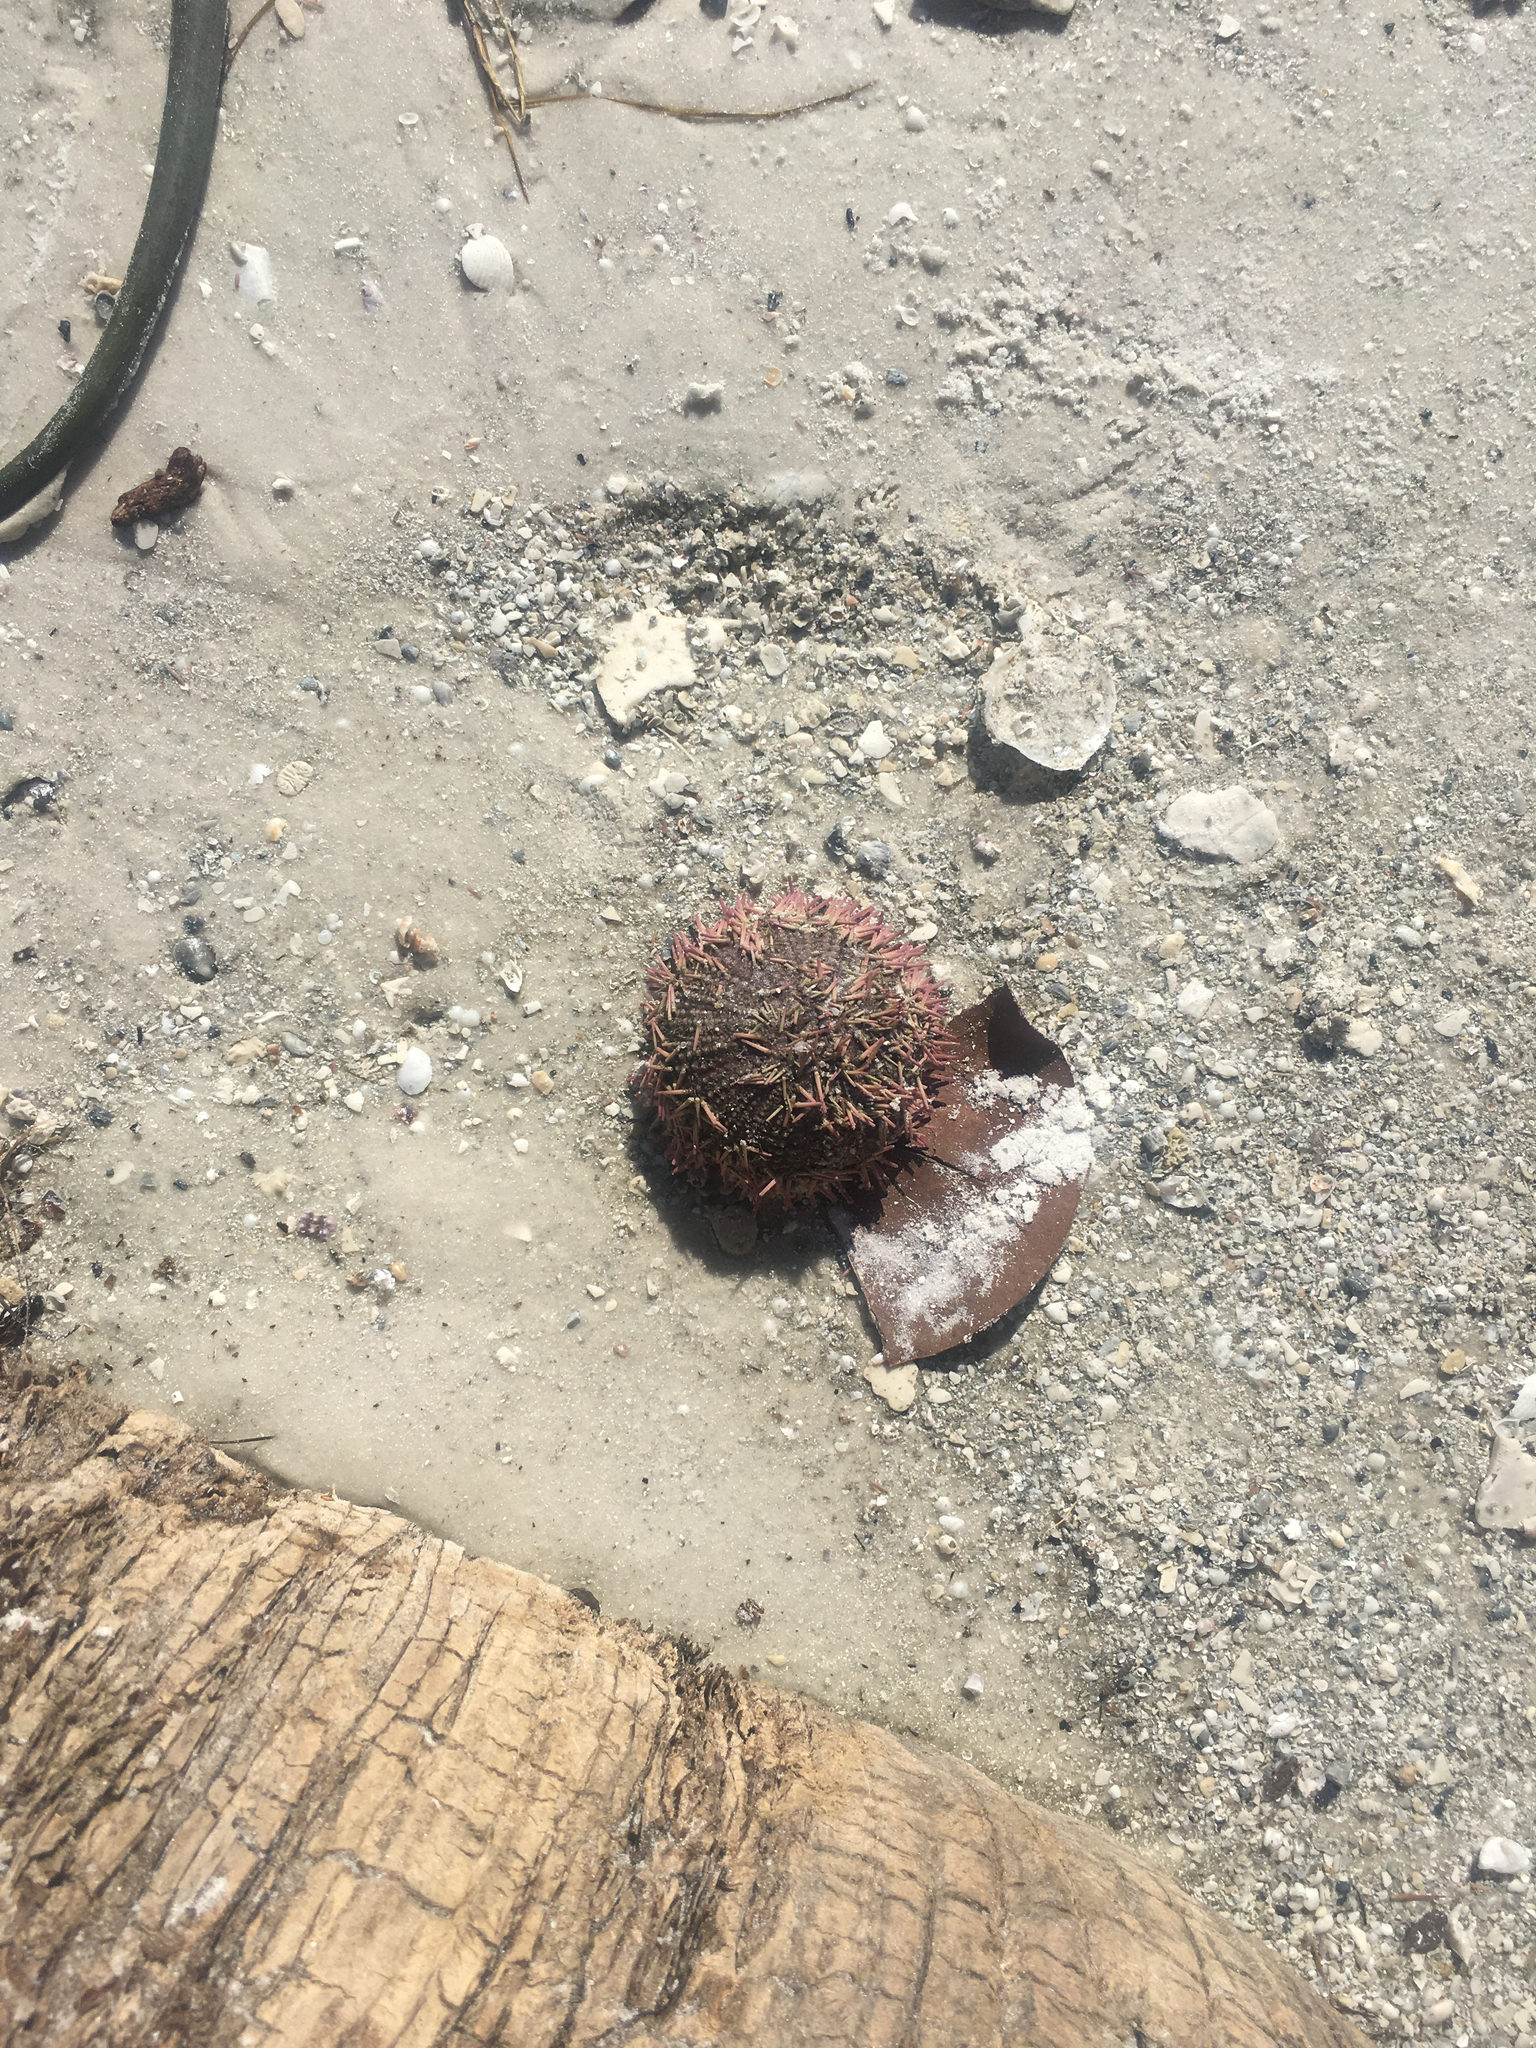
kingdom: Animalia
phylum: Echinodermata
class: Echinoidea
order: Camarodonta
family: Toxopneustidae
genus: Lytechinus
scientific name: Lytechinus variegatus
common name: Variegated urchin
